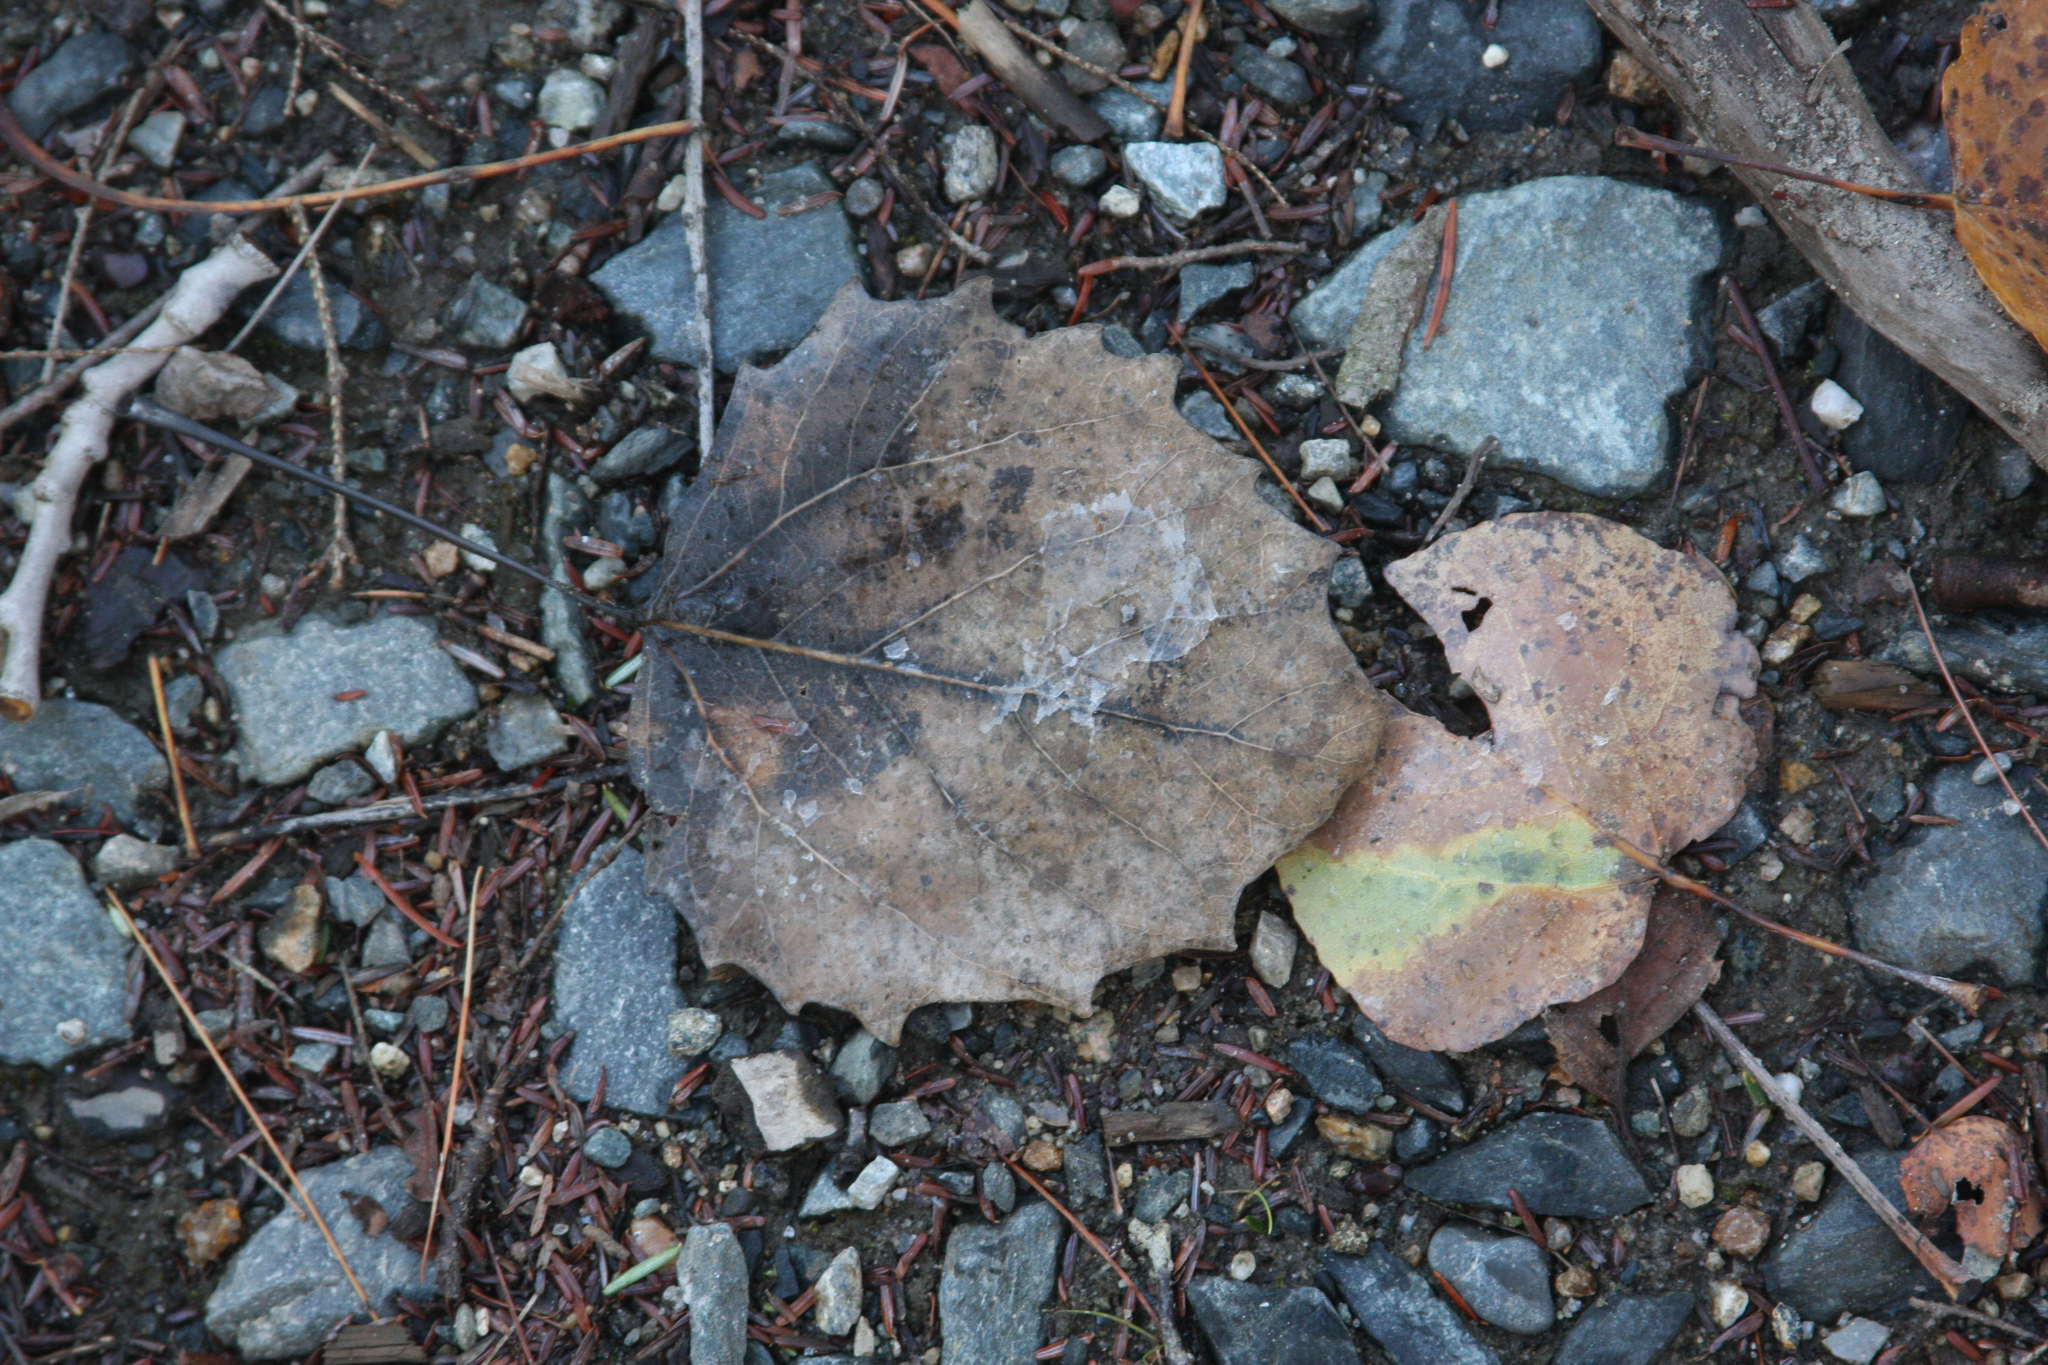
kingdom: Plantae
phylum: Tracheophyta
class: Magnoliopsida
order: Malpighiales
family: Salicaceae
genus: Populus
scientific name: Populus grandidentata
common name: Bigtooth aspen
